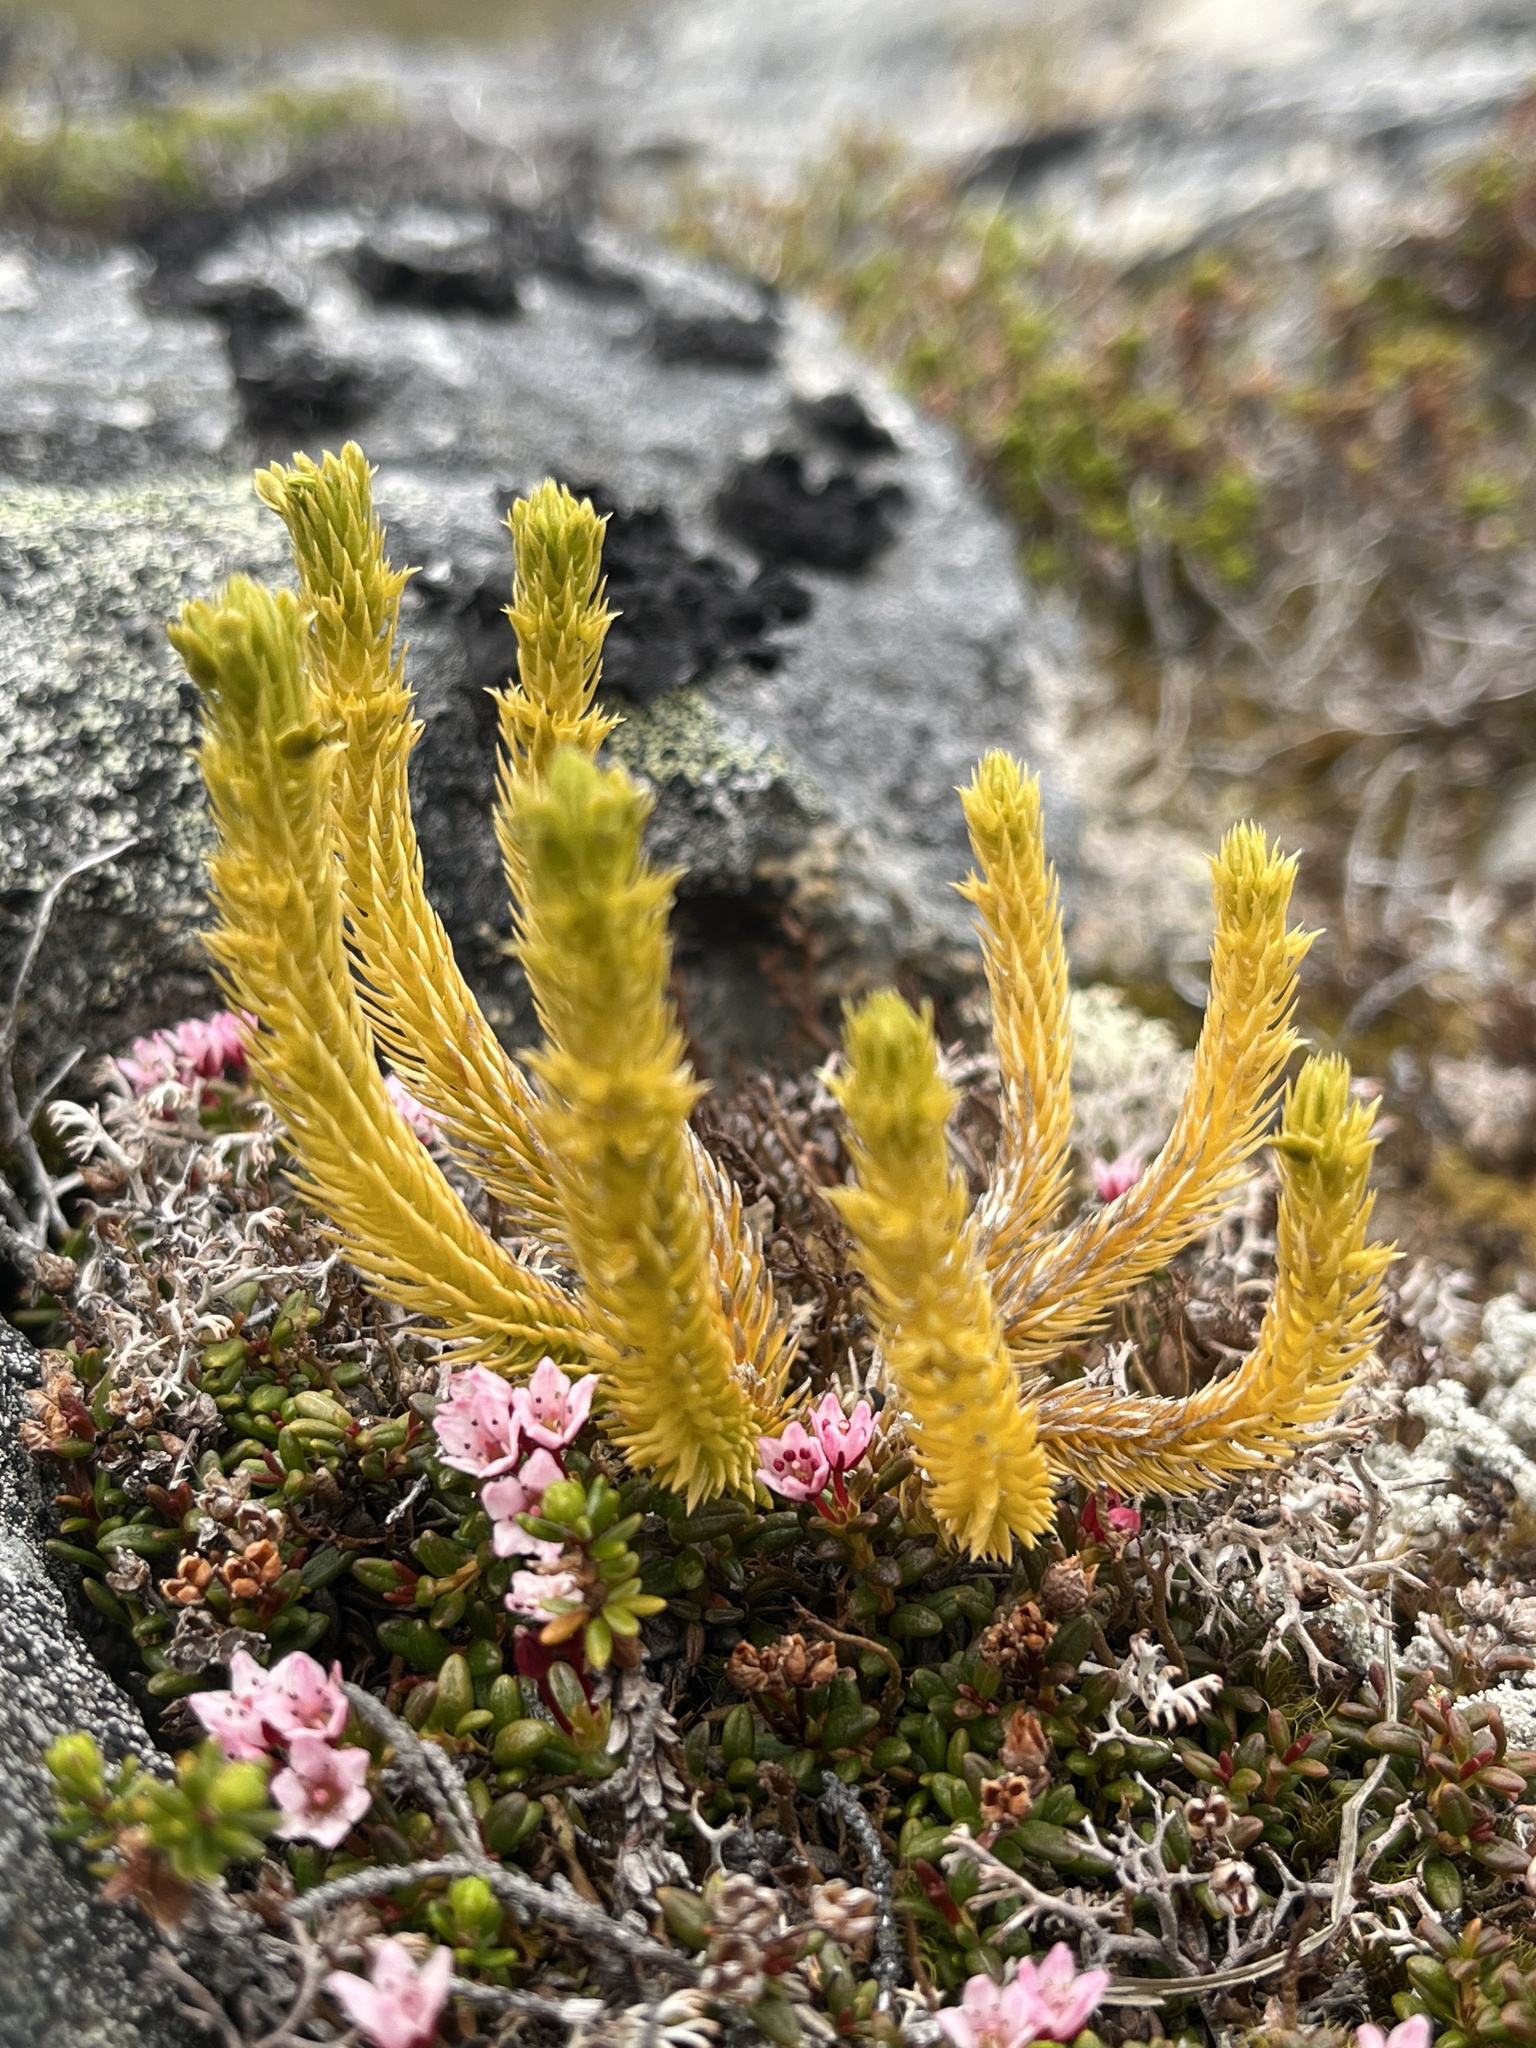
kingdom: Plantae
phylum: Tracheophyta
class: Lycopodiopsida
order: Lycopodiales
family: Lycopodiaceae
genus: Huperzia
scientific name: Huperzia selago
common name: Northern firmoss
